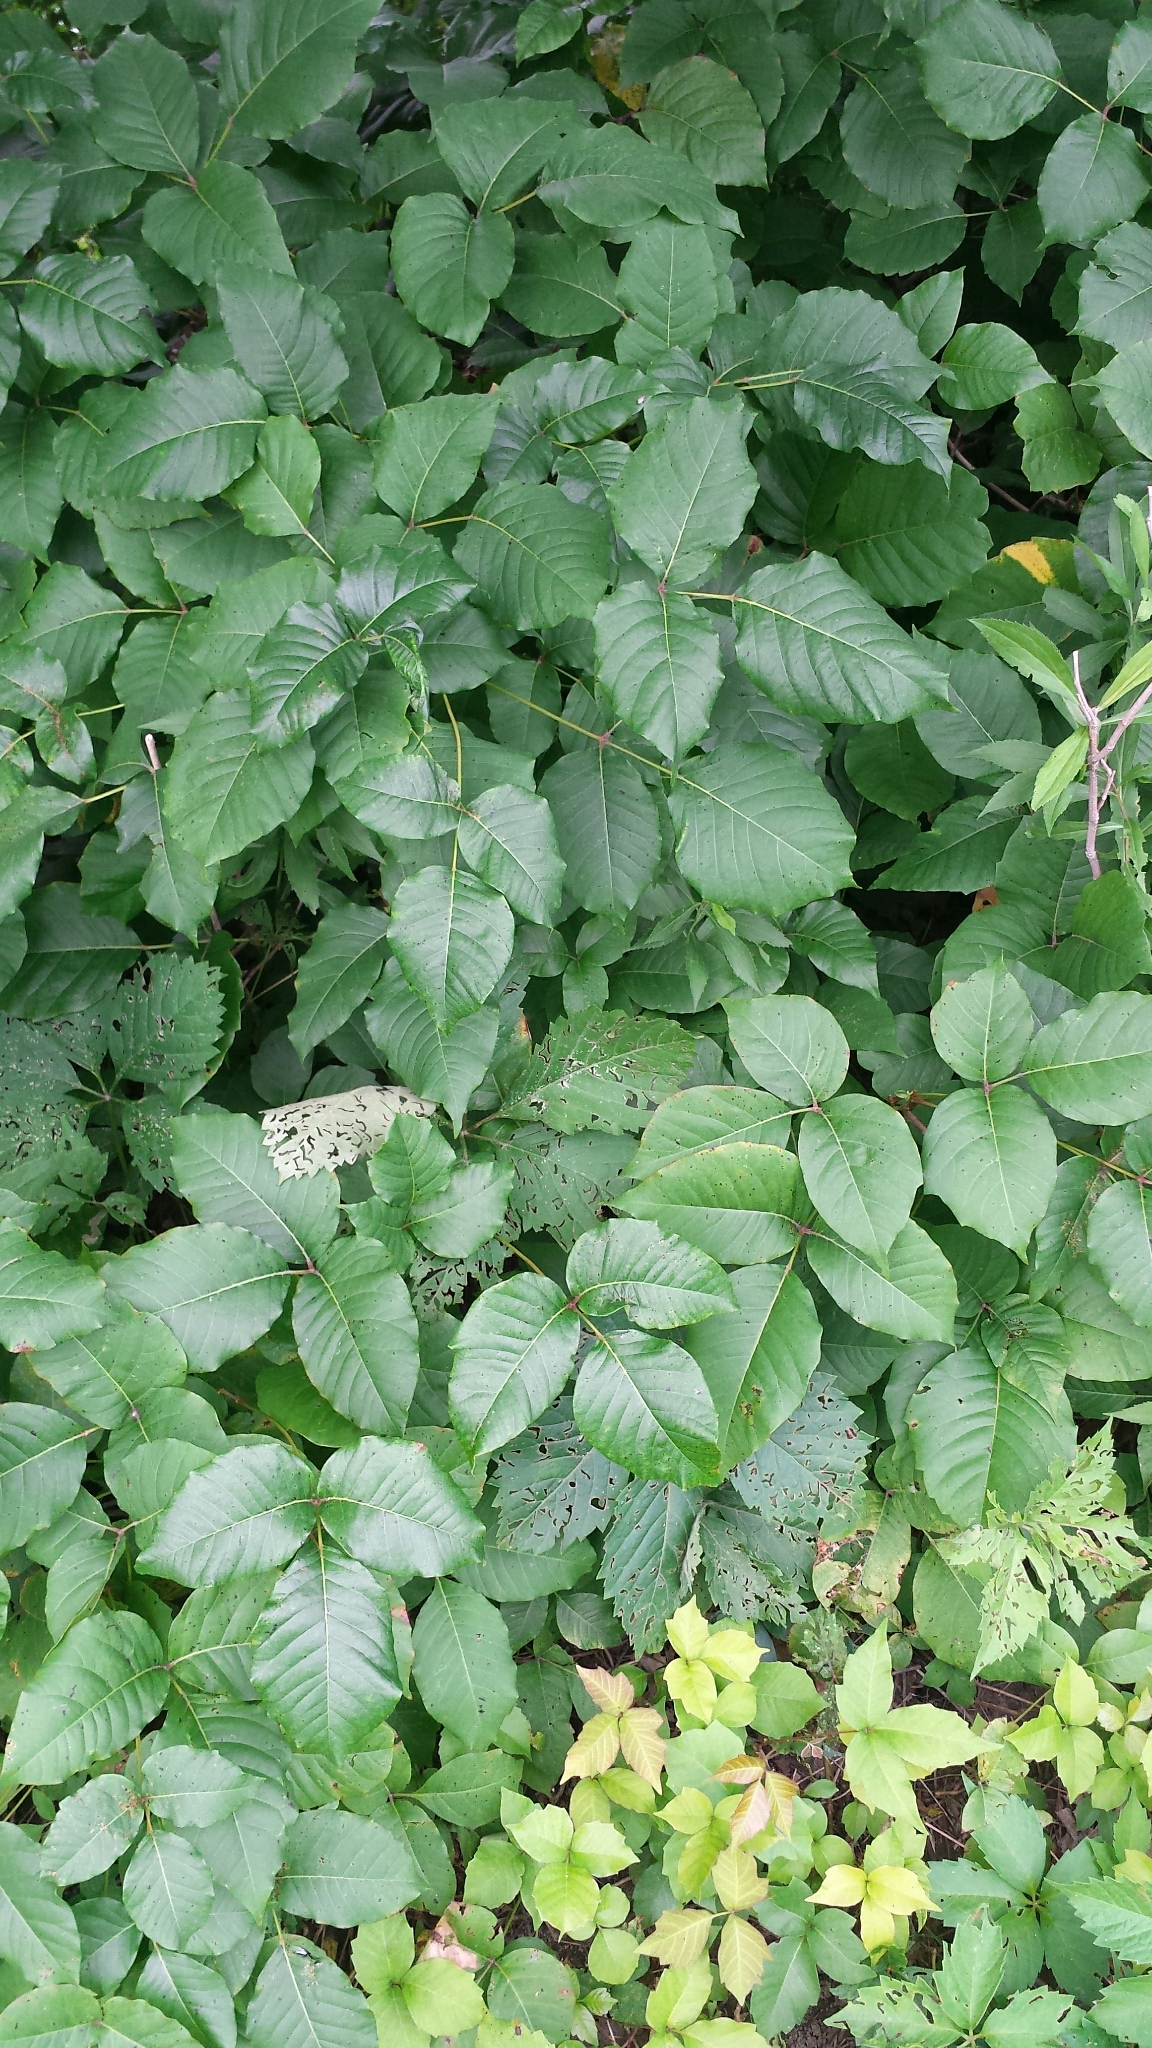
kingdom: Plantae
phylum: Tracheophyta
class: Magnoliopsida
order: Sapindales
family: Anacardiaceae
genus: Toxicodendron
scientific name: Toxicodendron radicans
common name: Poison ivy
